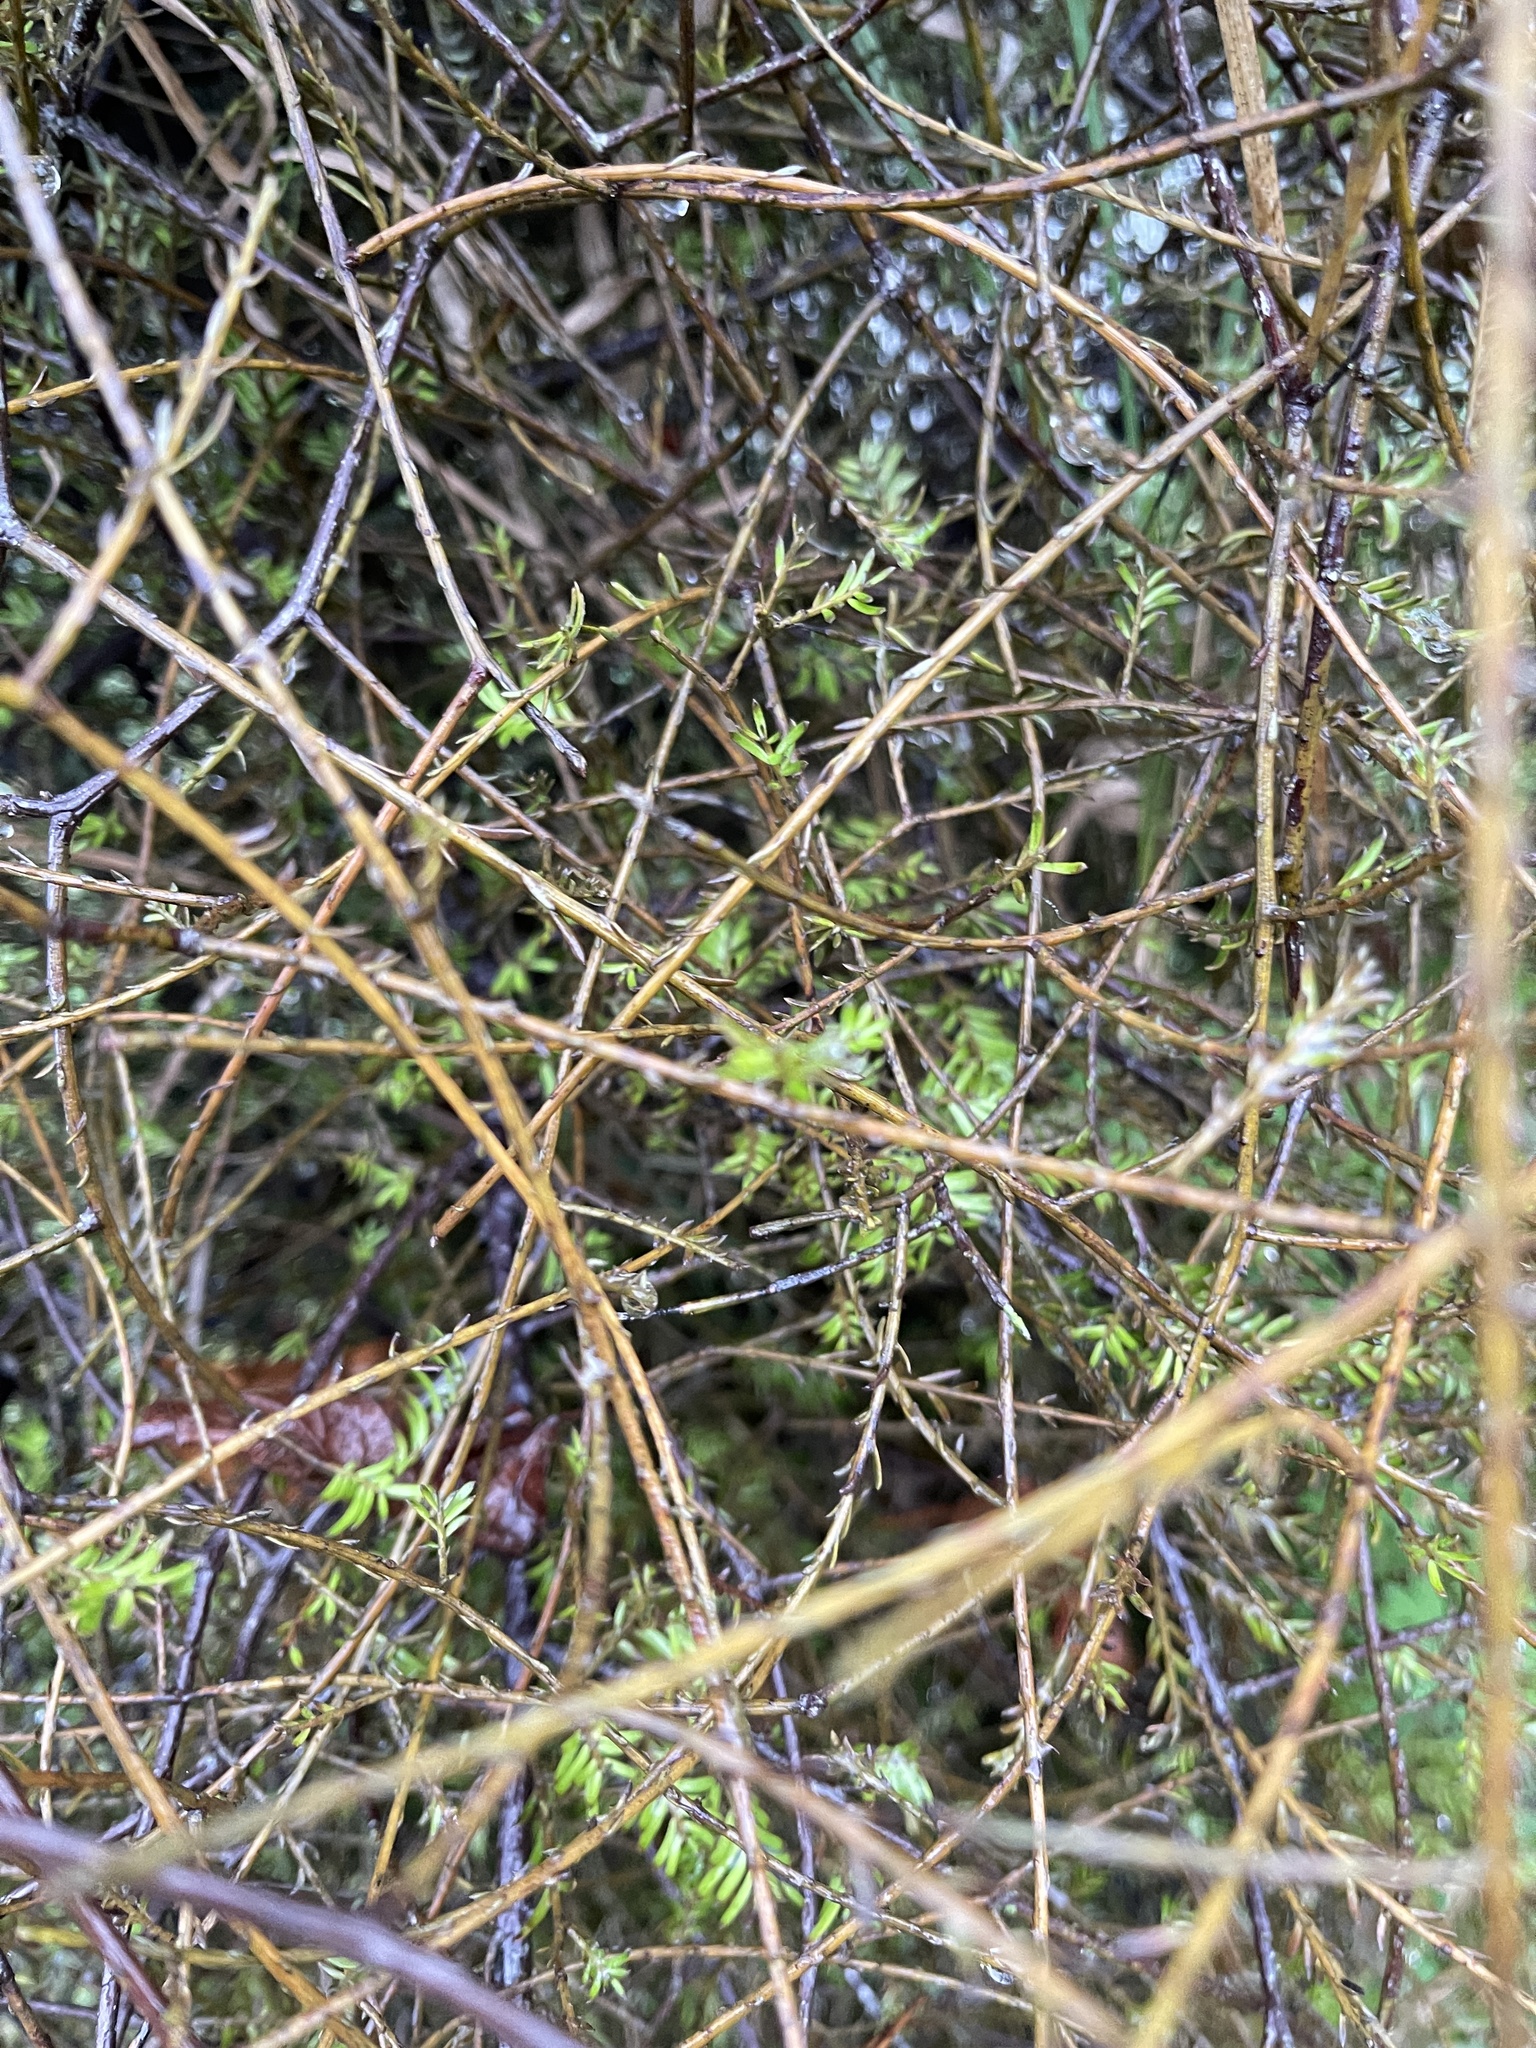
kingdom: Plantae
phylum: Tracheophyta
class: Pinopsida
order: Pinales
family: Podocarpaceae
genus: Prumnopitys
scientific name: Prumnopitys taxifolia
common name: Matai
